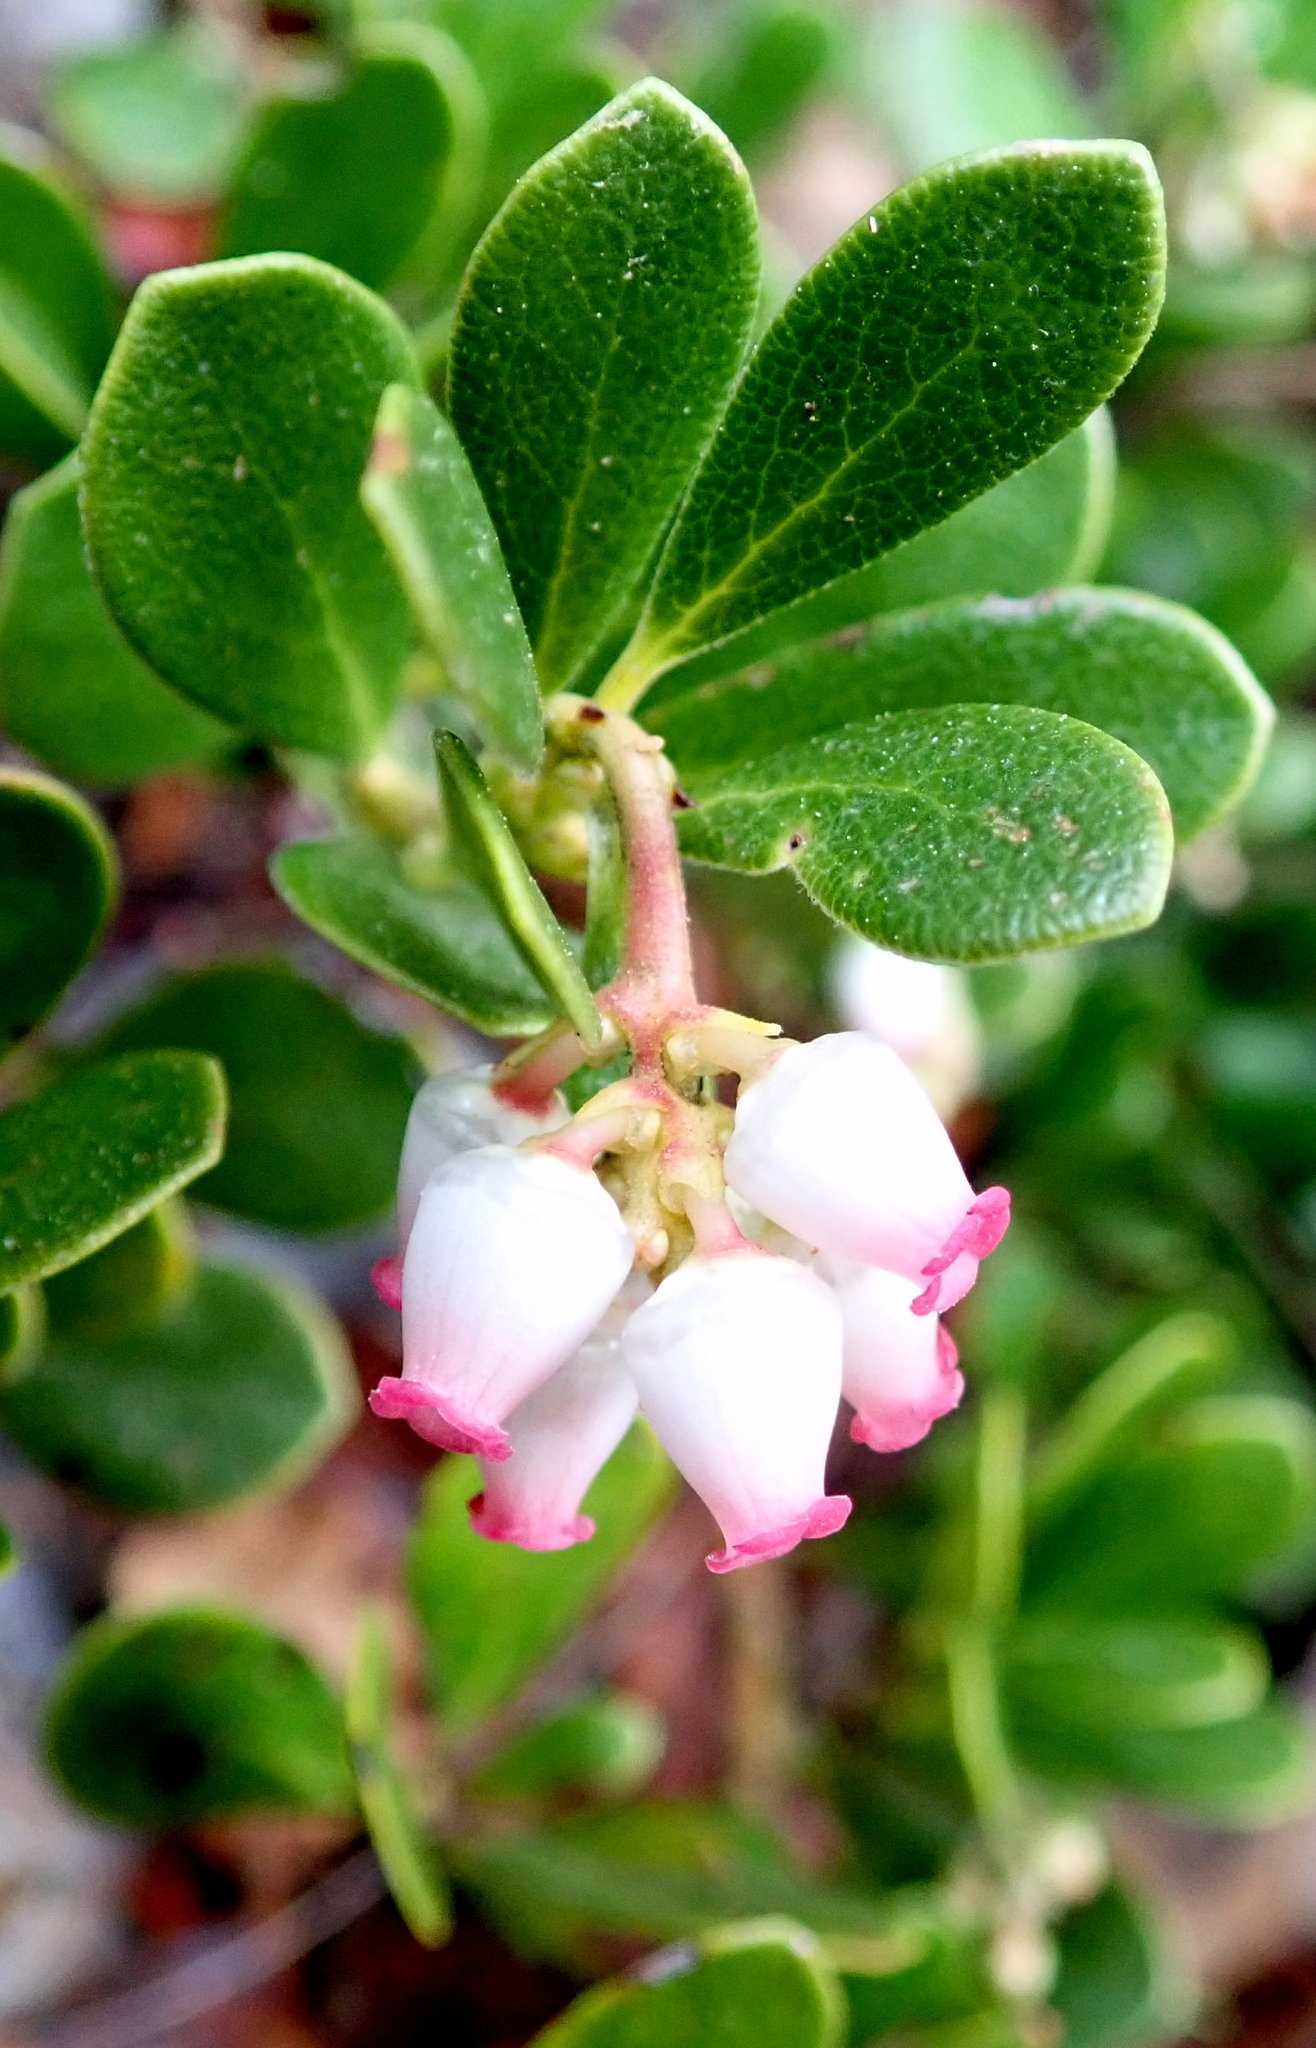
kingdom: Plantae
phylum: Tracheophyta
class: Magnoliopsida
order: Ericales
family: Ericaceae
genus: Arctostaphylos
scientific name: Arctostaphylos uva-ursi
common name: Bearberry
